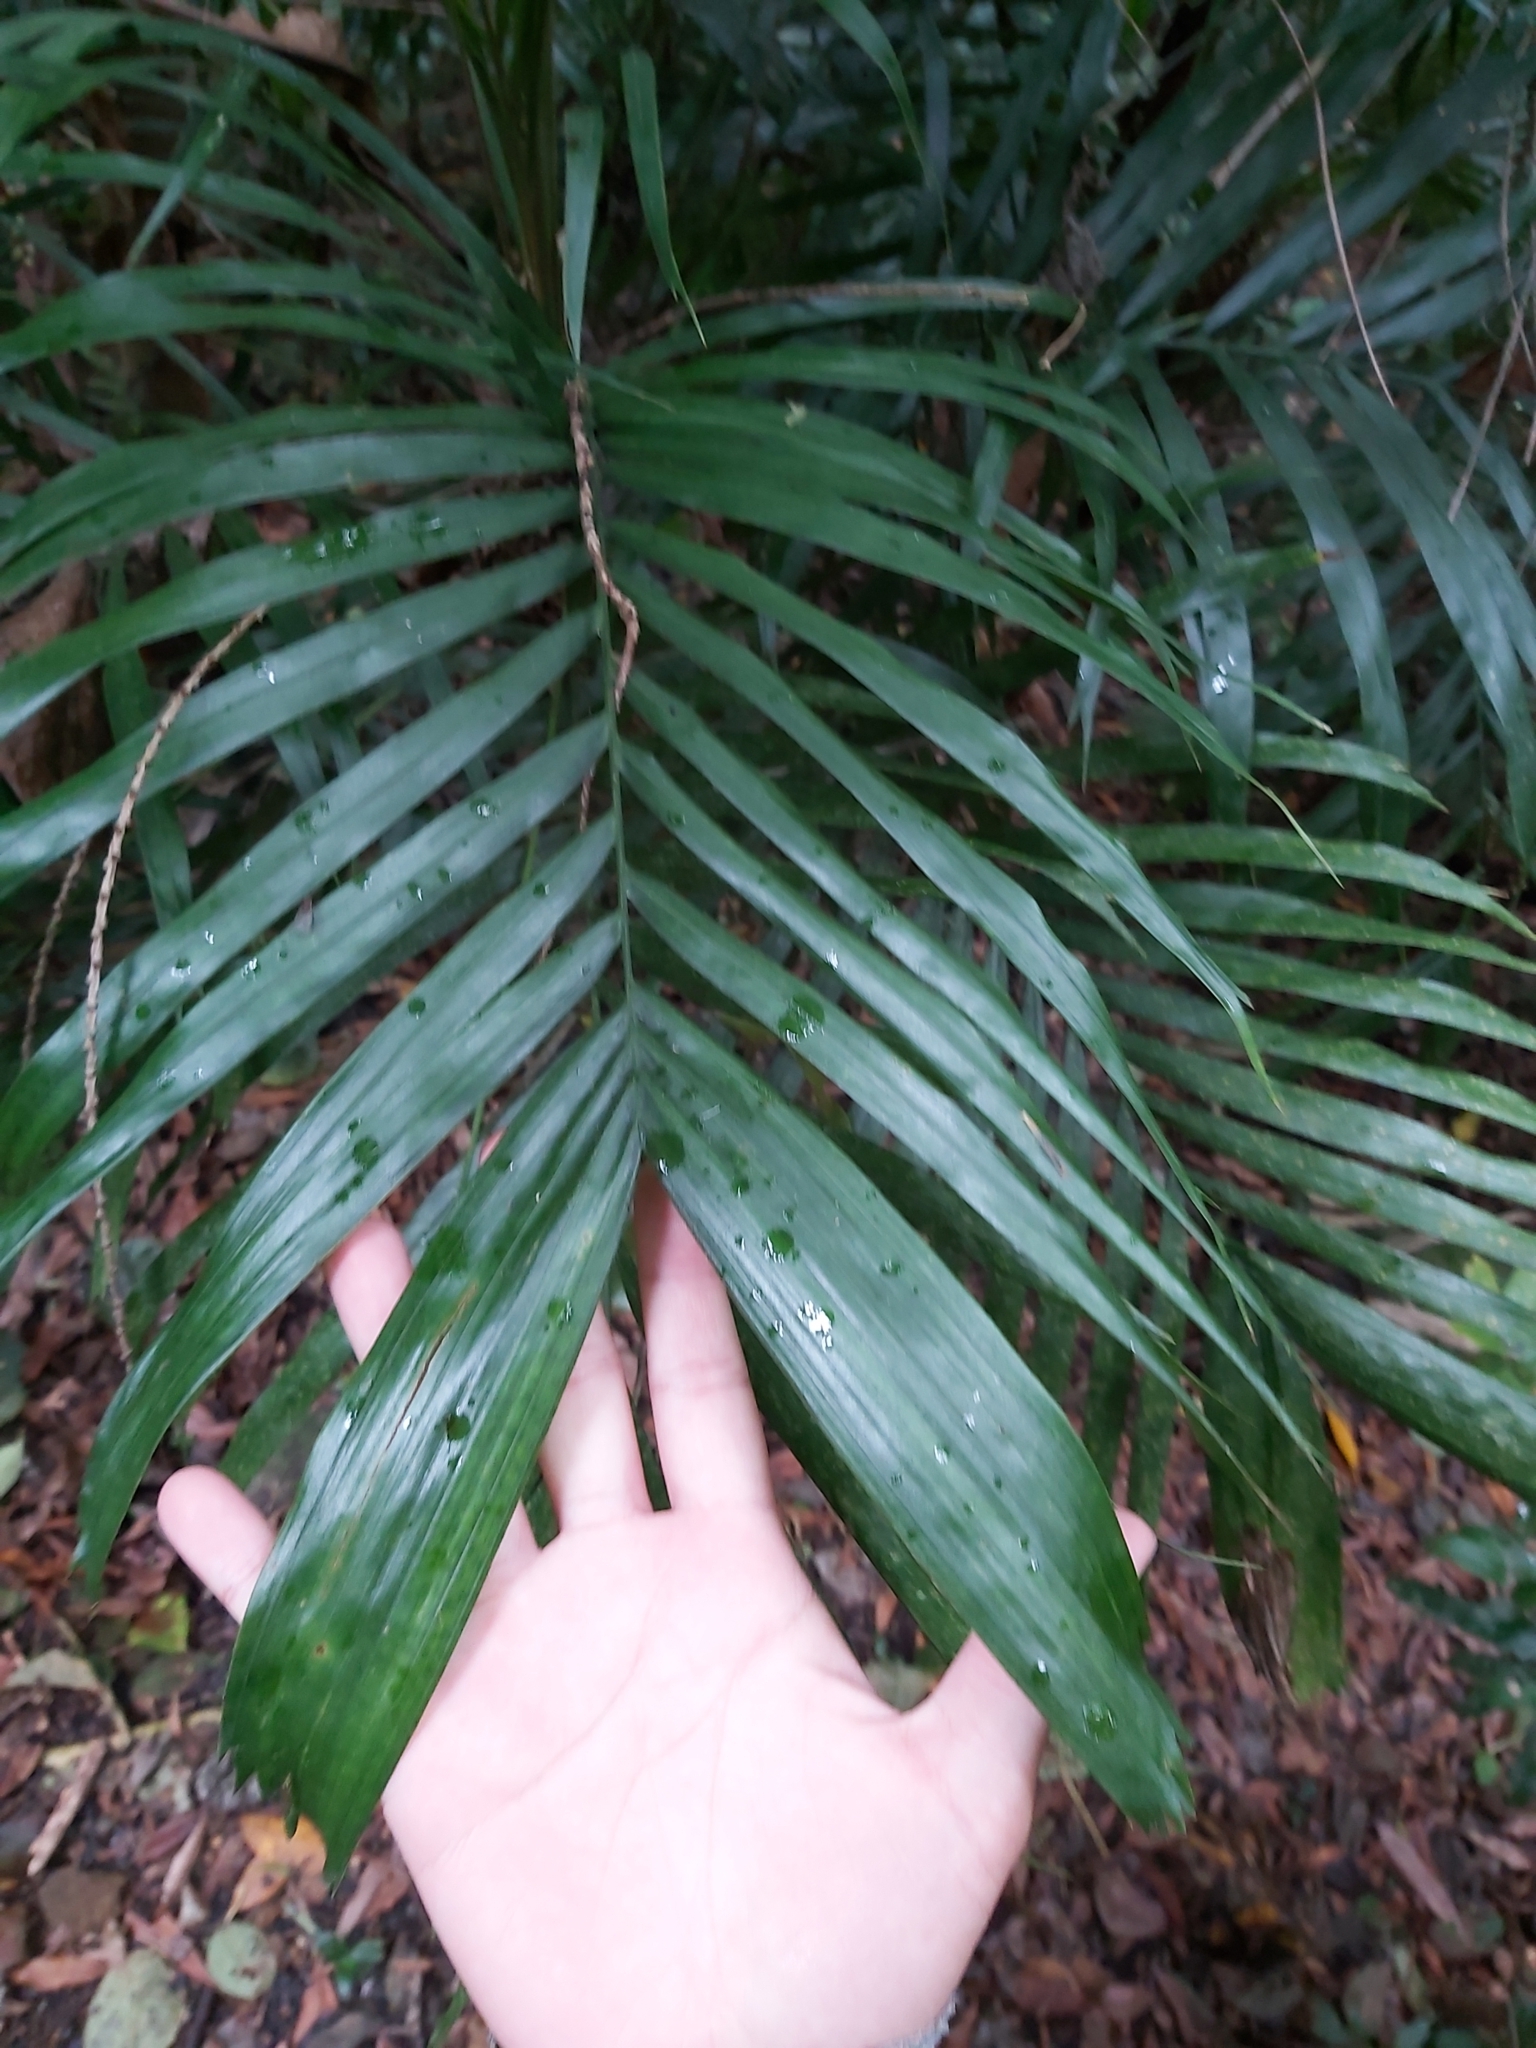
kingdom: Plantae
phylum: Tracheophyta
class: Liliopsida
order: Arecales
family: Arecaceae
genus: Linospadix
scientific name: Linospadix monostachyus
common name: Walking-stick palm
